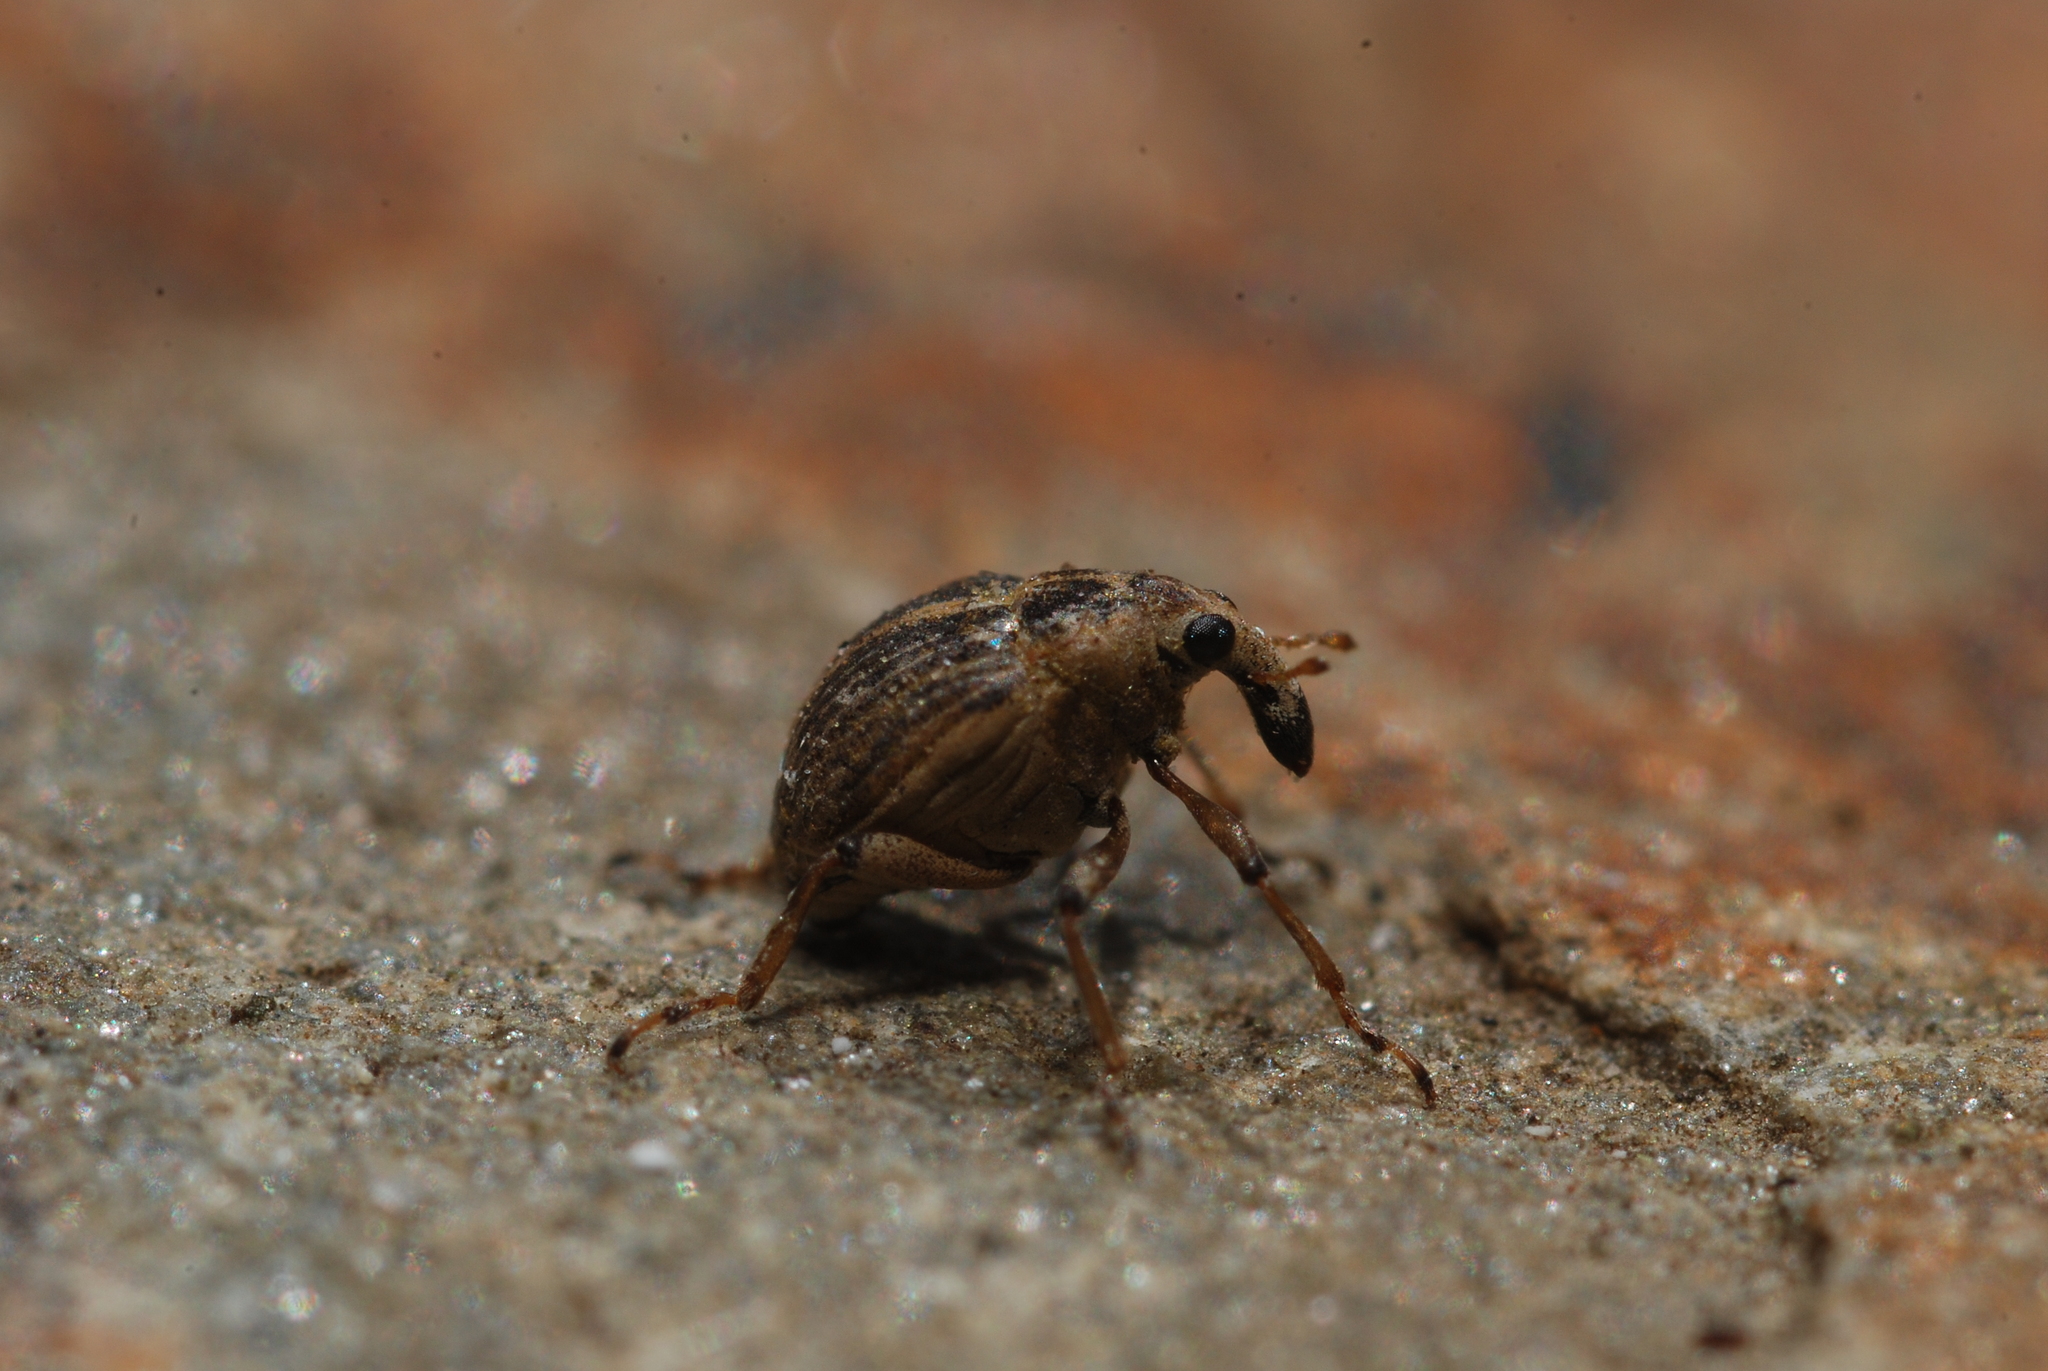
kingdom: Animalia
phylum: Arthropoda
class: Insecta
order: Coleoptera
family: Curculionidae
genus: Eubrychius
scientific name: Eubrychius velutus
